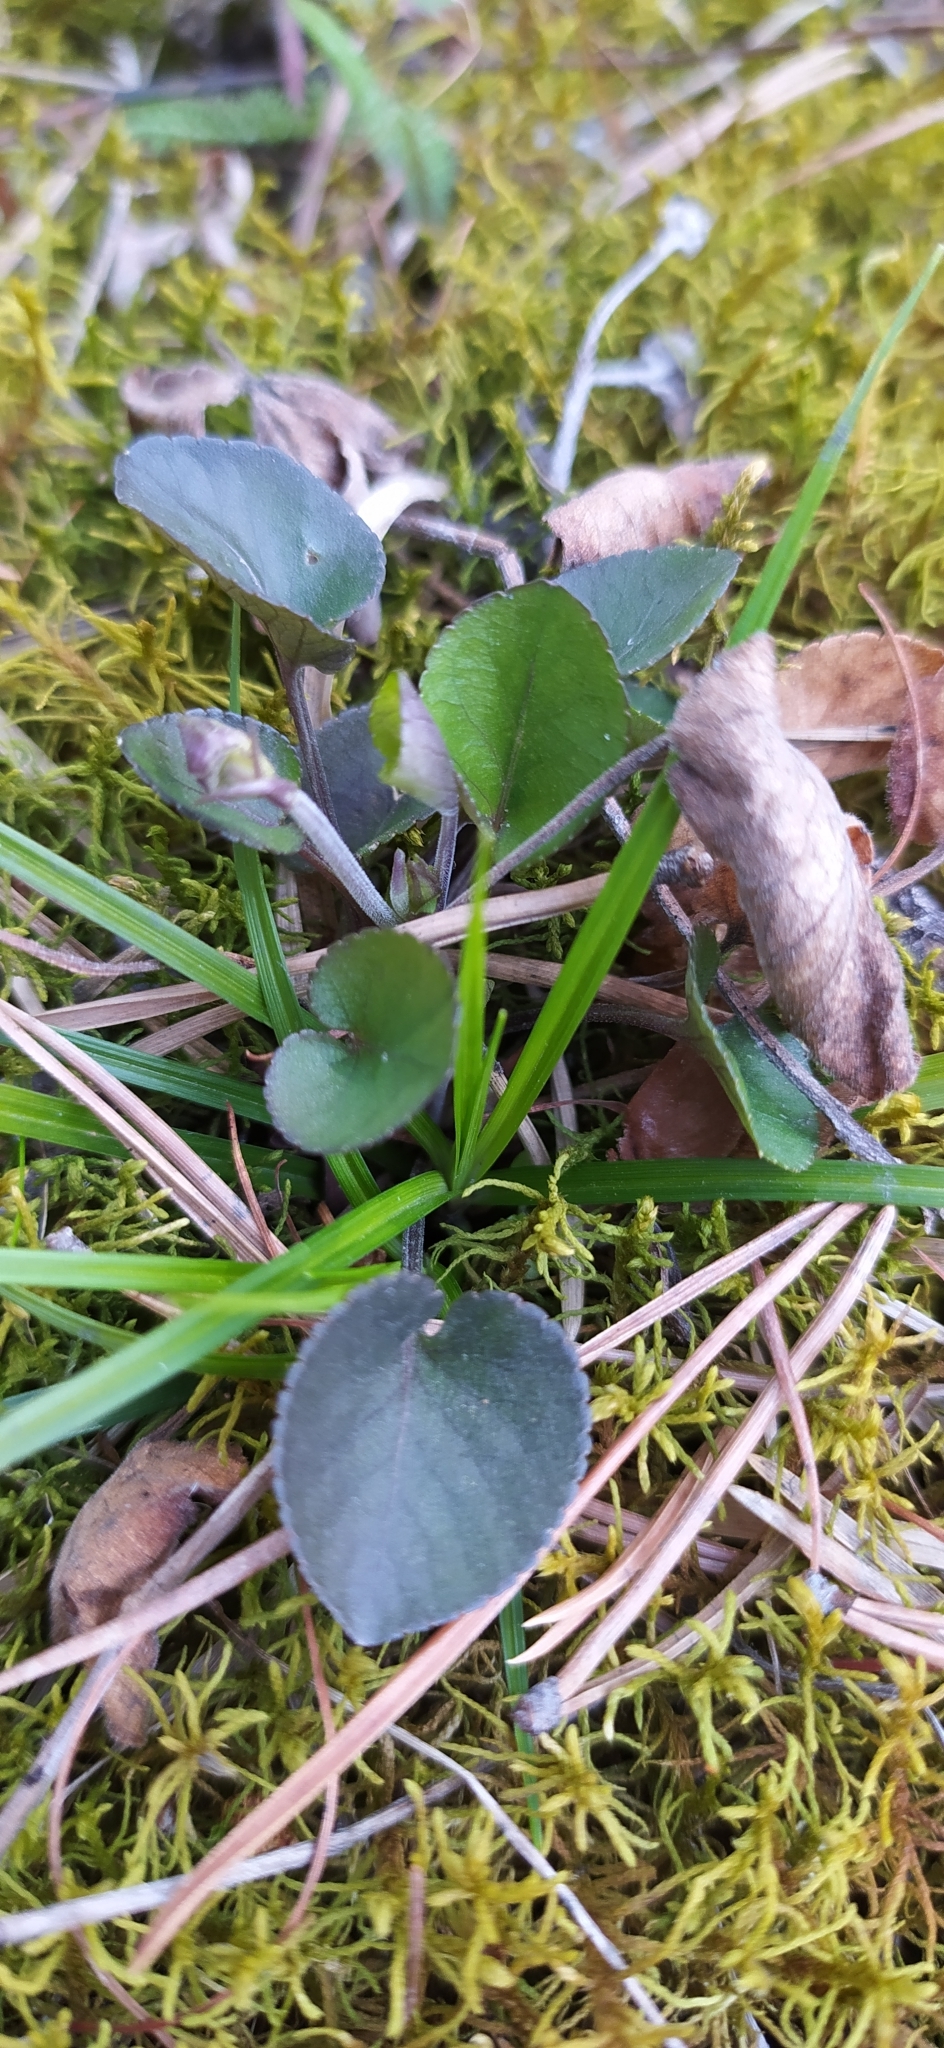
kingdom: Plantae
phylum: Tracheophyta
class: Magnoliopsida
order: Malpighiales
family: Violaceae
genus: Viola
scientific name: Viola rupestris
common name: Teesdale violet
